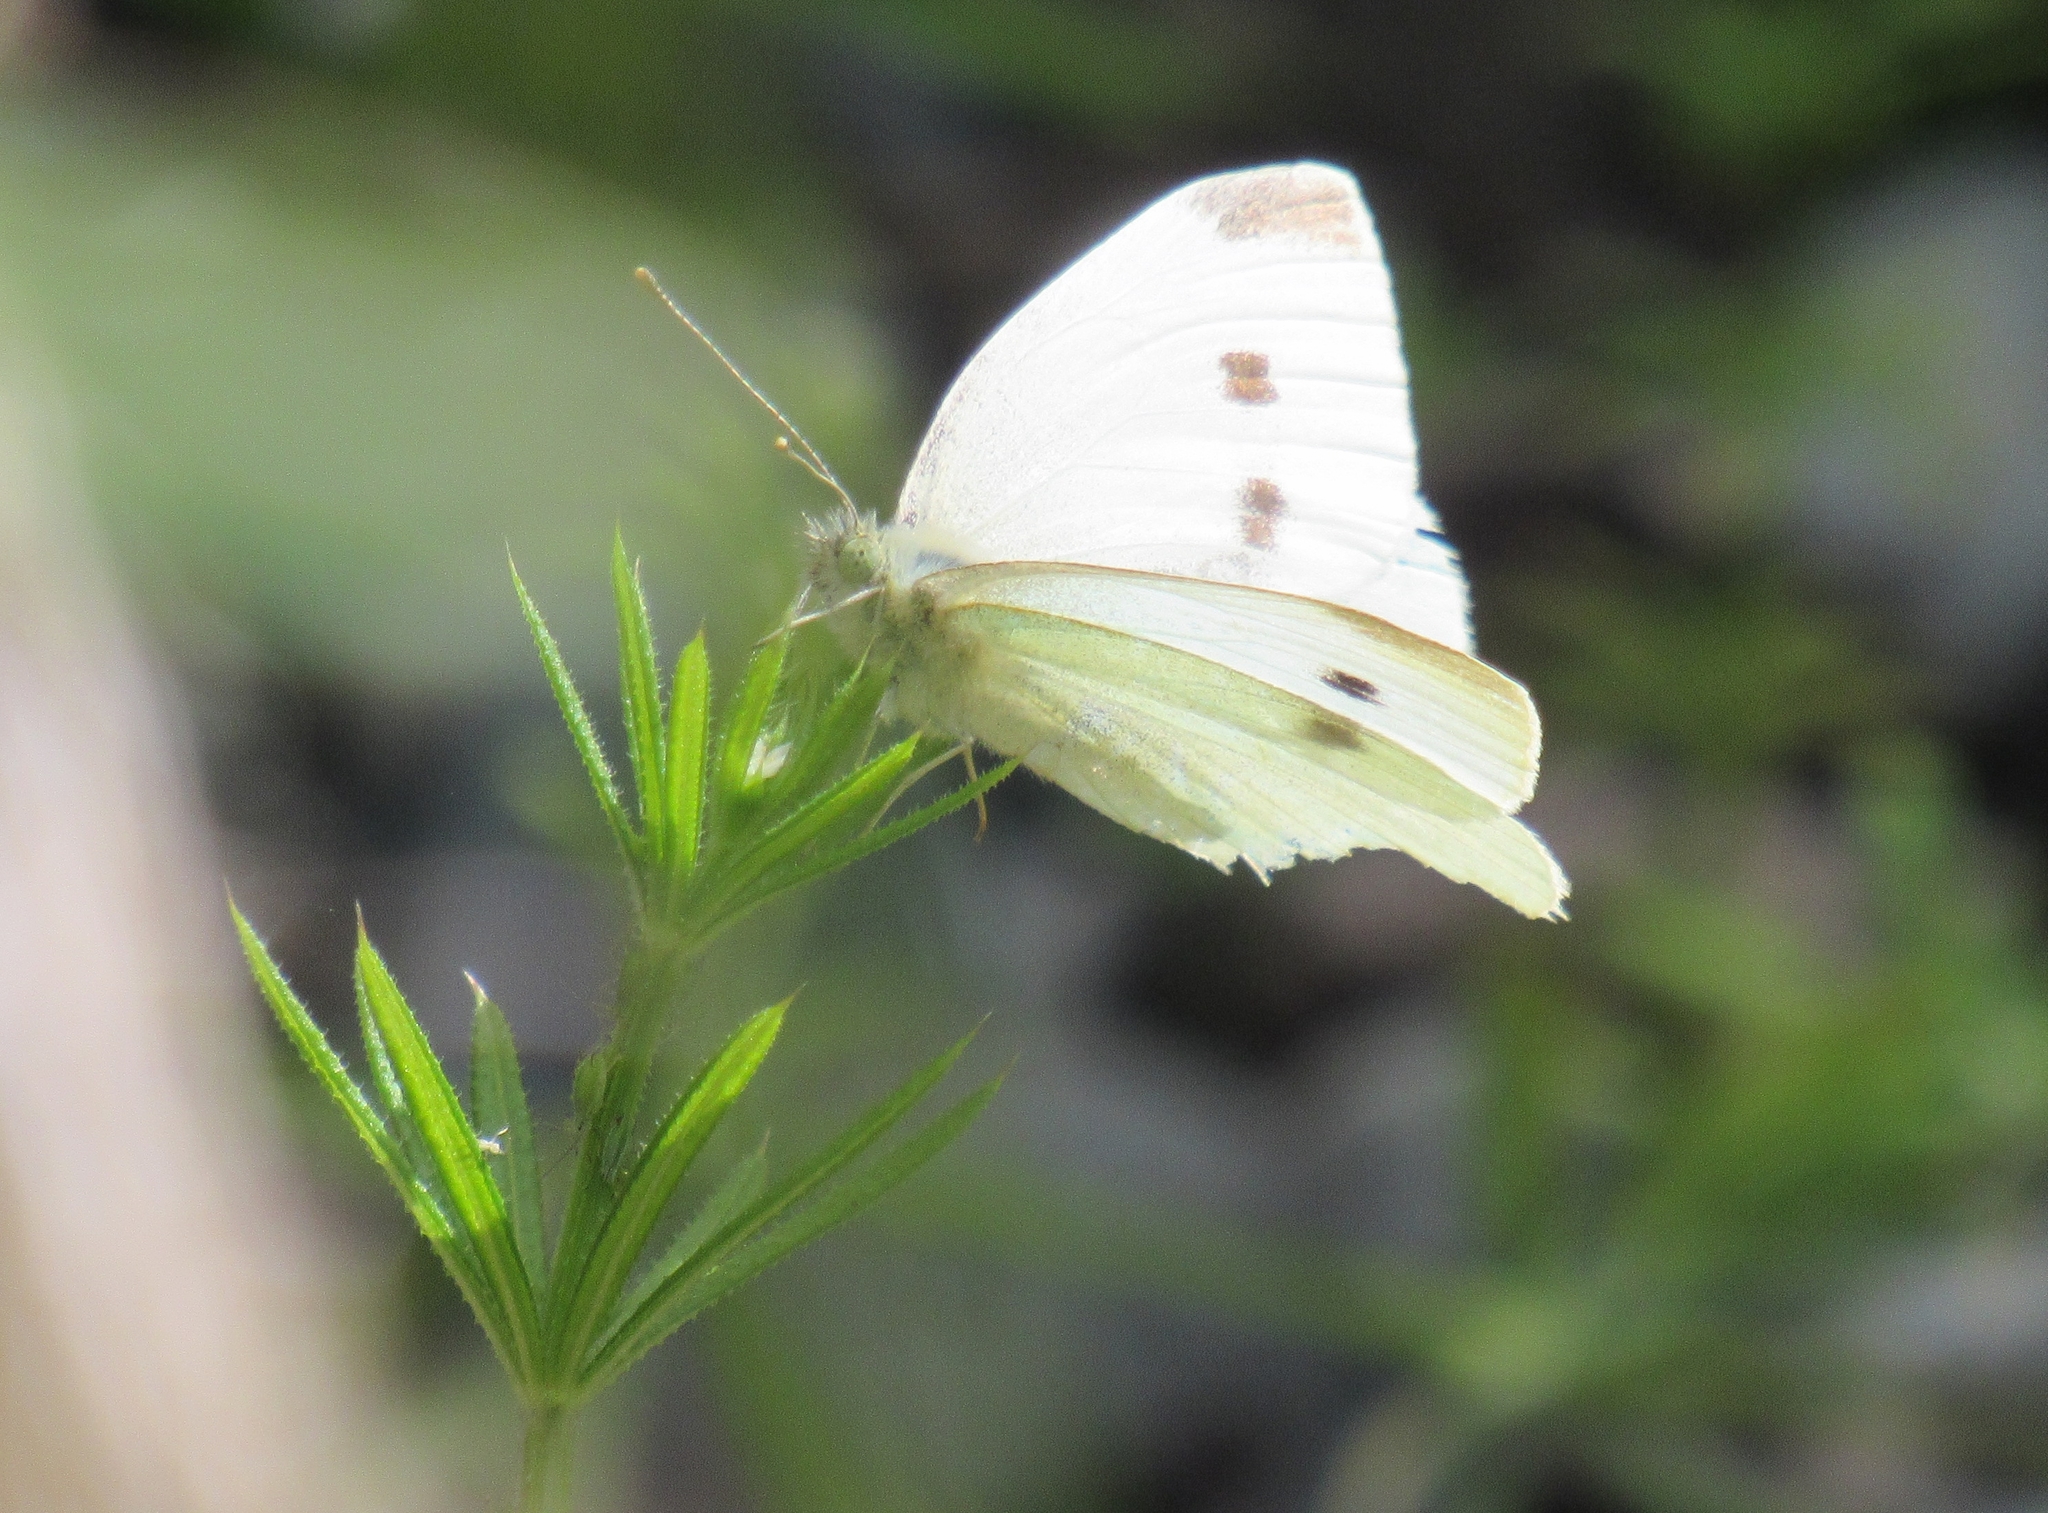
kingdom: Animalia
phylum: Arthropoda
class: Insecta
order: Lepidoptera
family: Pieridae
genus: Pieris
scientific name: Pieris rapae
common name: Small white
